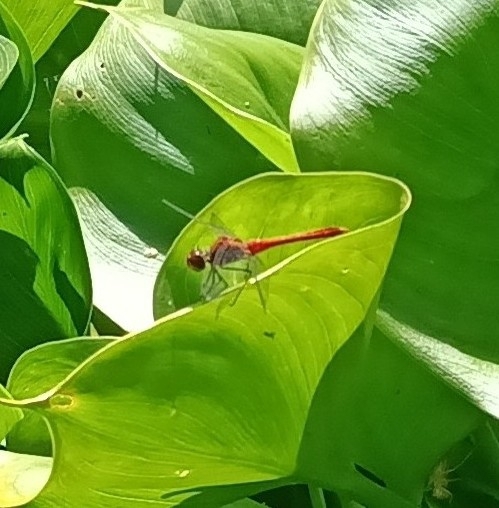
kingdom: Animalia
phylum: Arthropoda
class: Insecta
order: Odonata
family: Libellulidae
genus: Sympetrum
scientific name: Sympetrum sanguineum
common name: Ruddy darter
